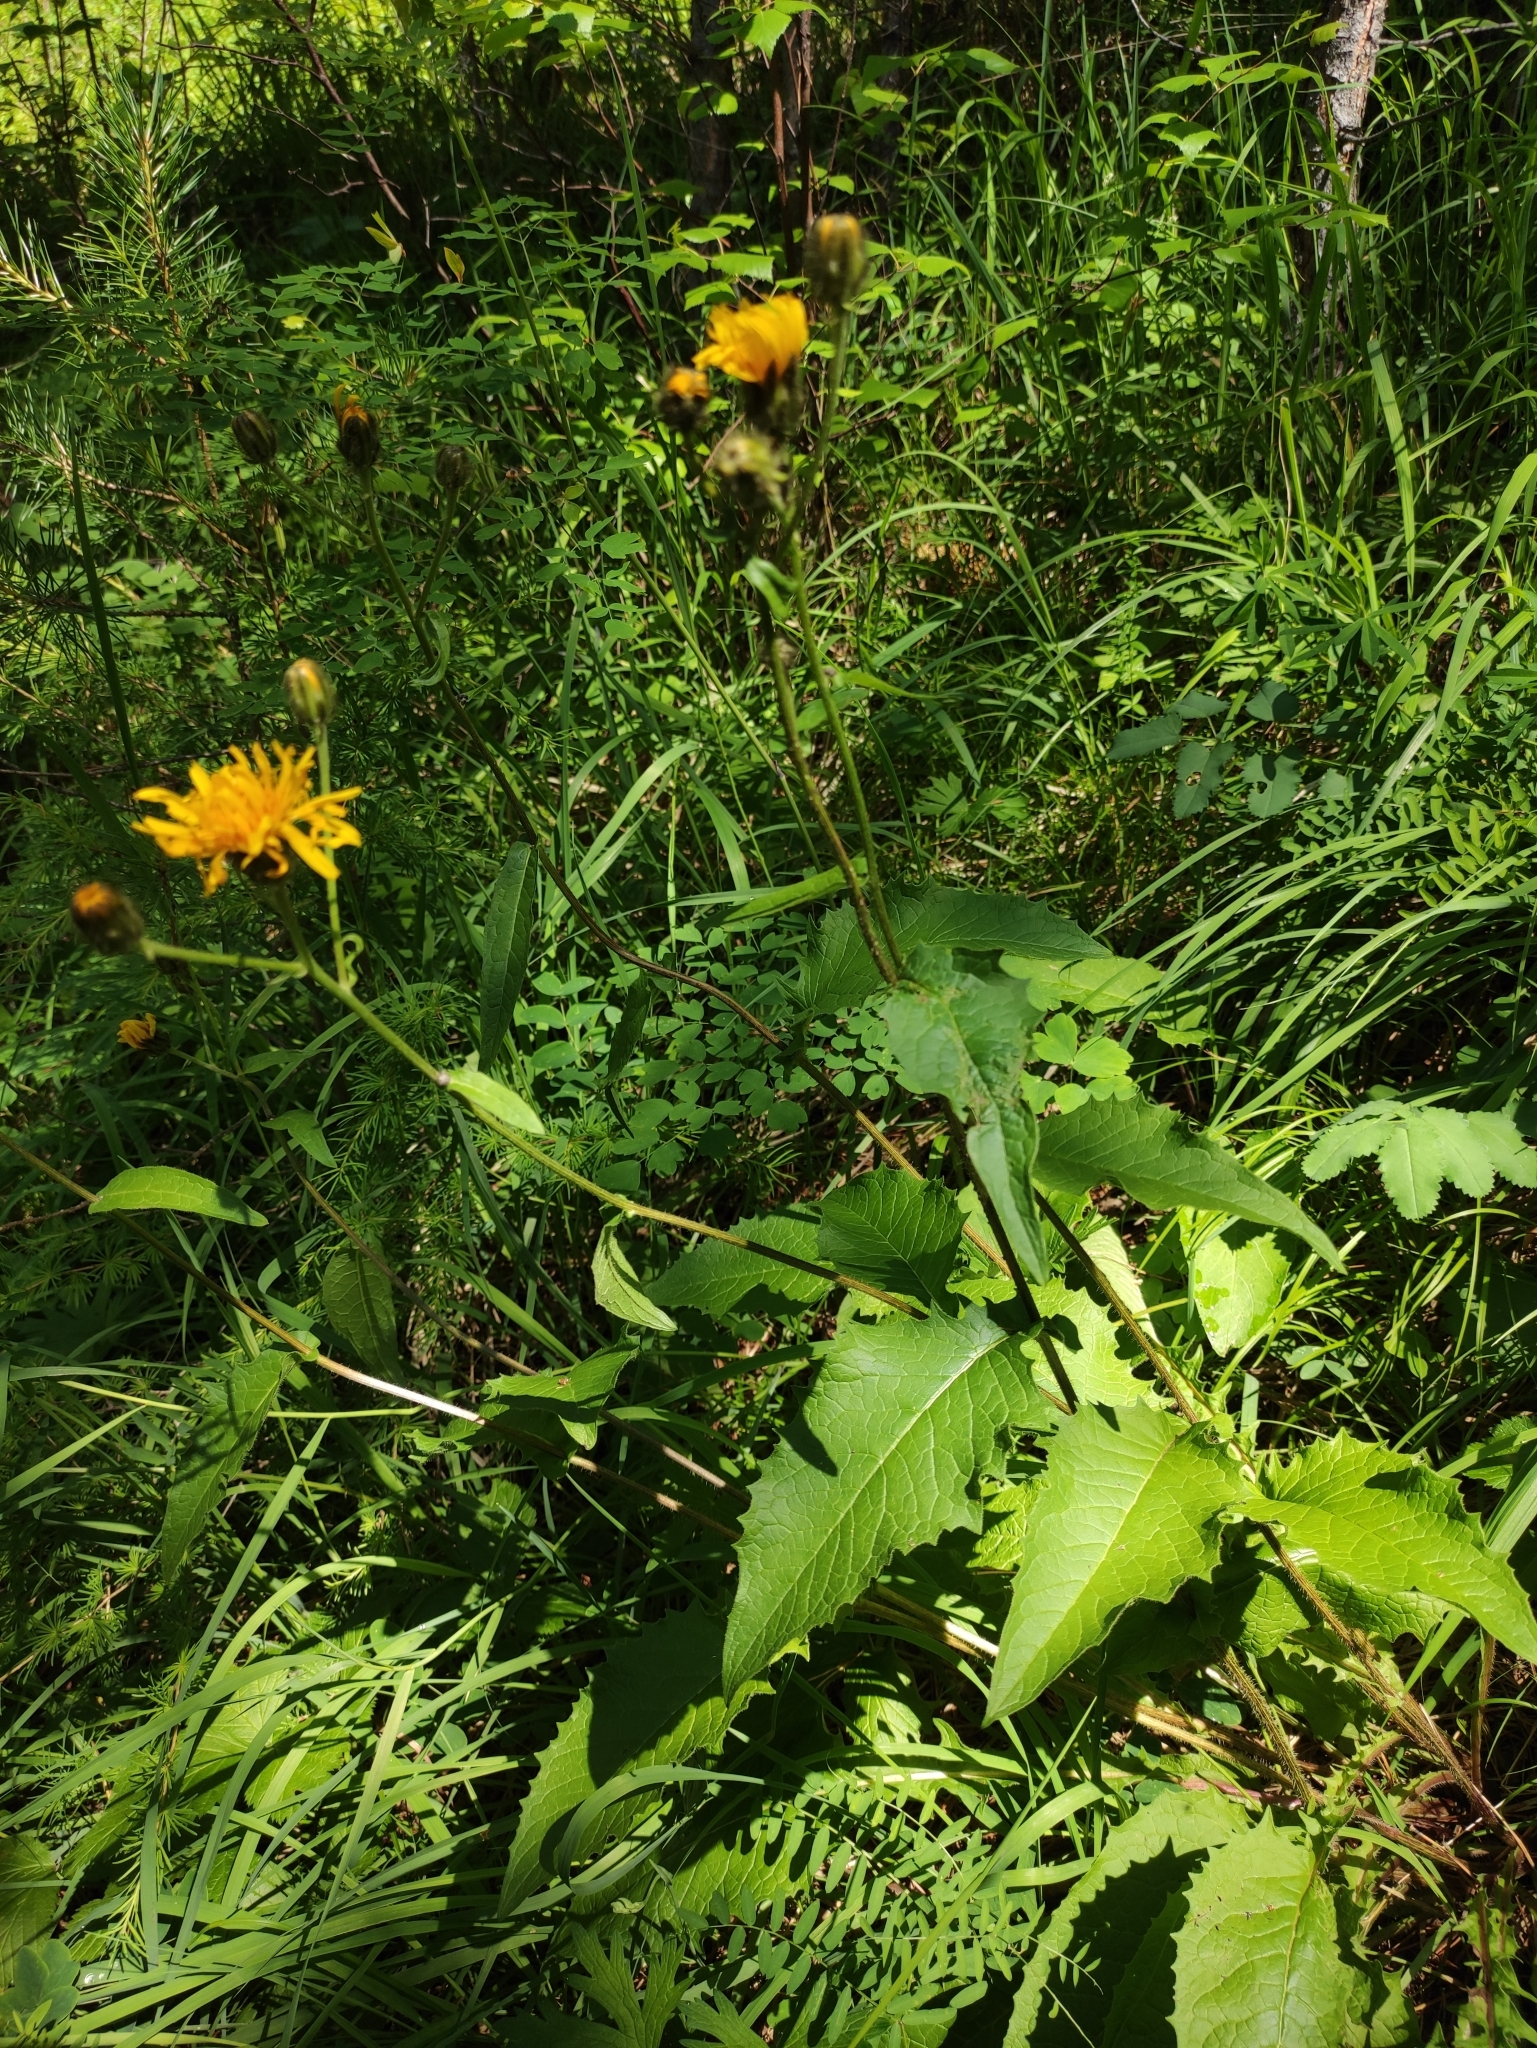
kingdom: Plantae
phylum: Tracheophyta
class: Magnoliopsida
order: Asterales
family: Asteraceae
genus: Crepis
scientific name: Crepis sibirica
